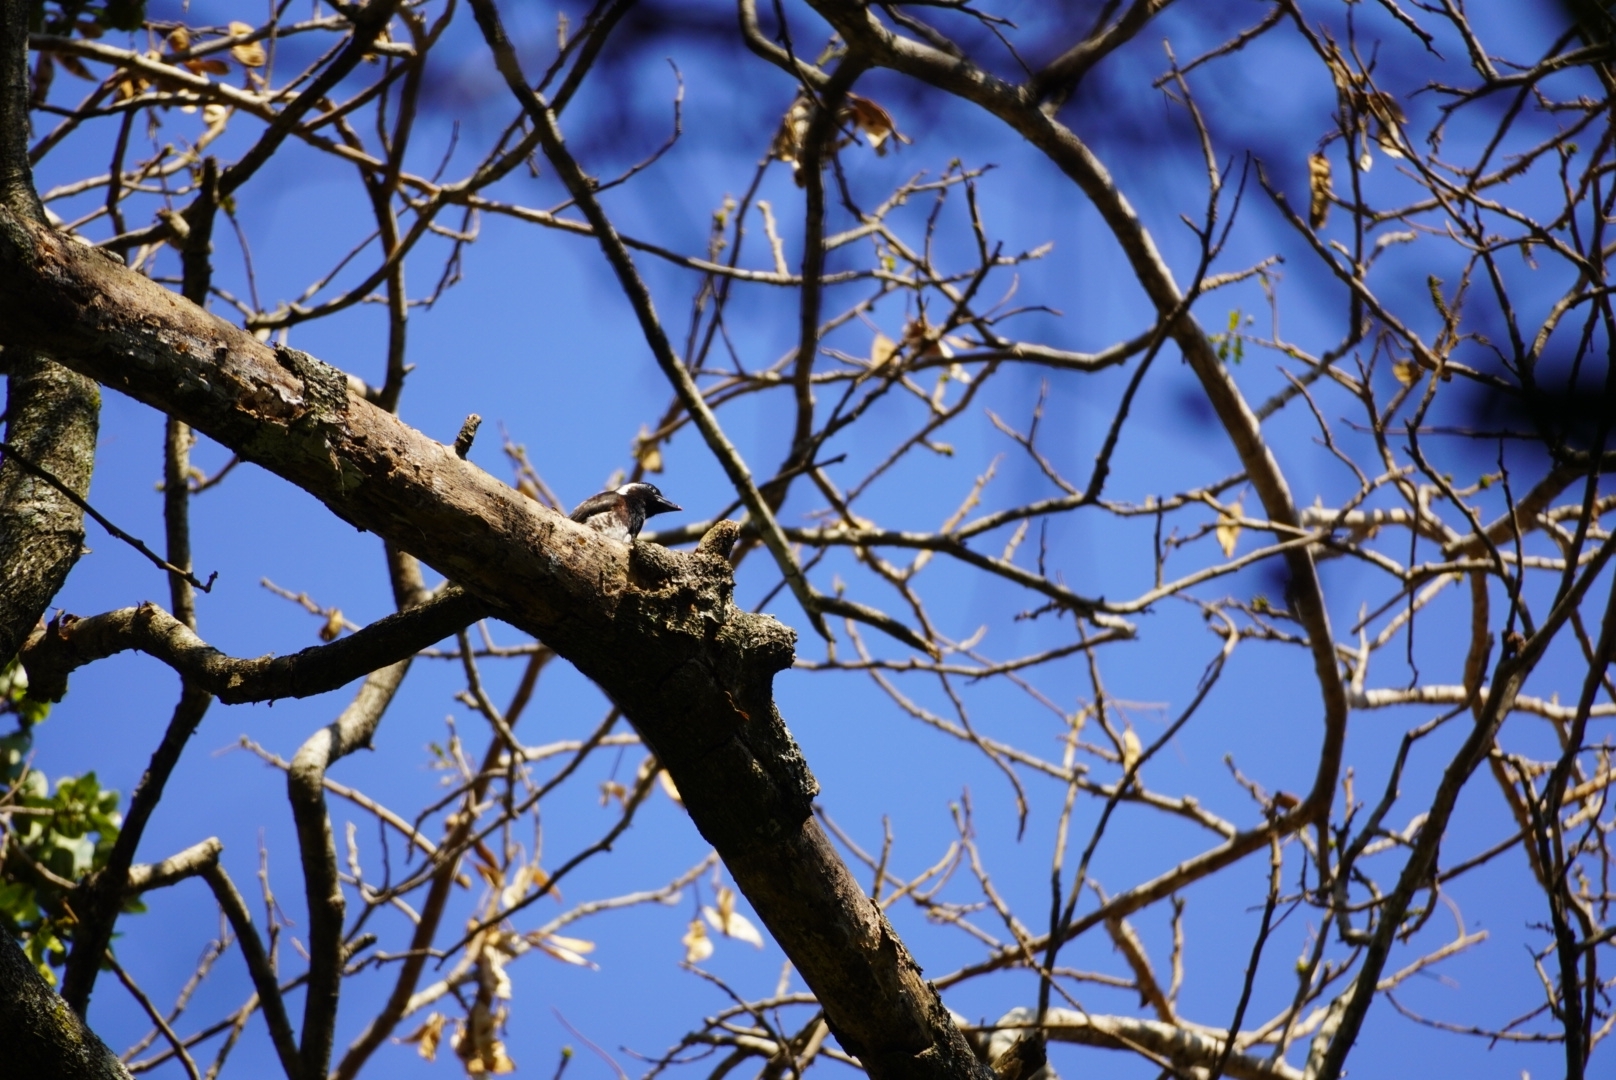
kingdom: Animalia
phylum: Chordata
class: Aves
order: Piciformes
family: Lybiidae
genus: Stactolaema
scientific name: Stactolaema leucotis
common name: White-eared barbet
